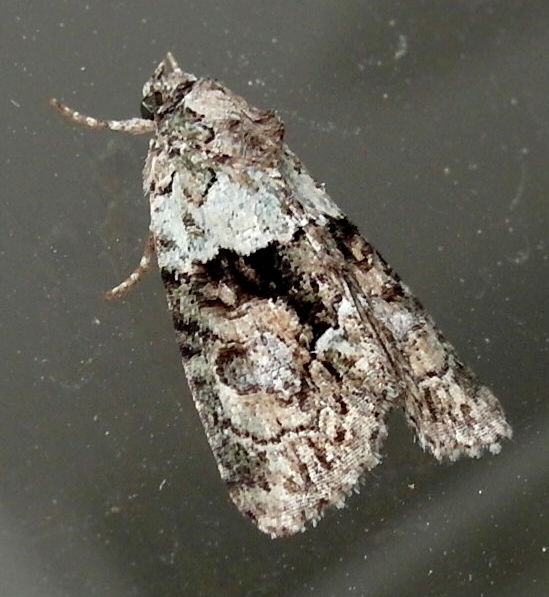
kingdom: Animalia
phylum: Arthropoda
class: Insecta
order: Lepidoptera
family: Noctuidae
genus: Cryphia
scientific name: Cryphia
